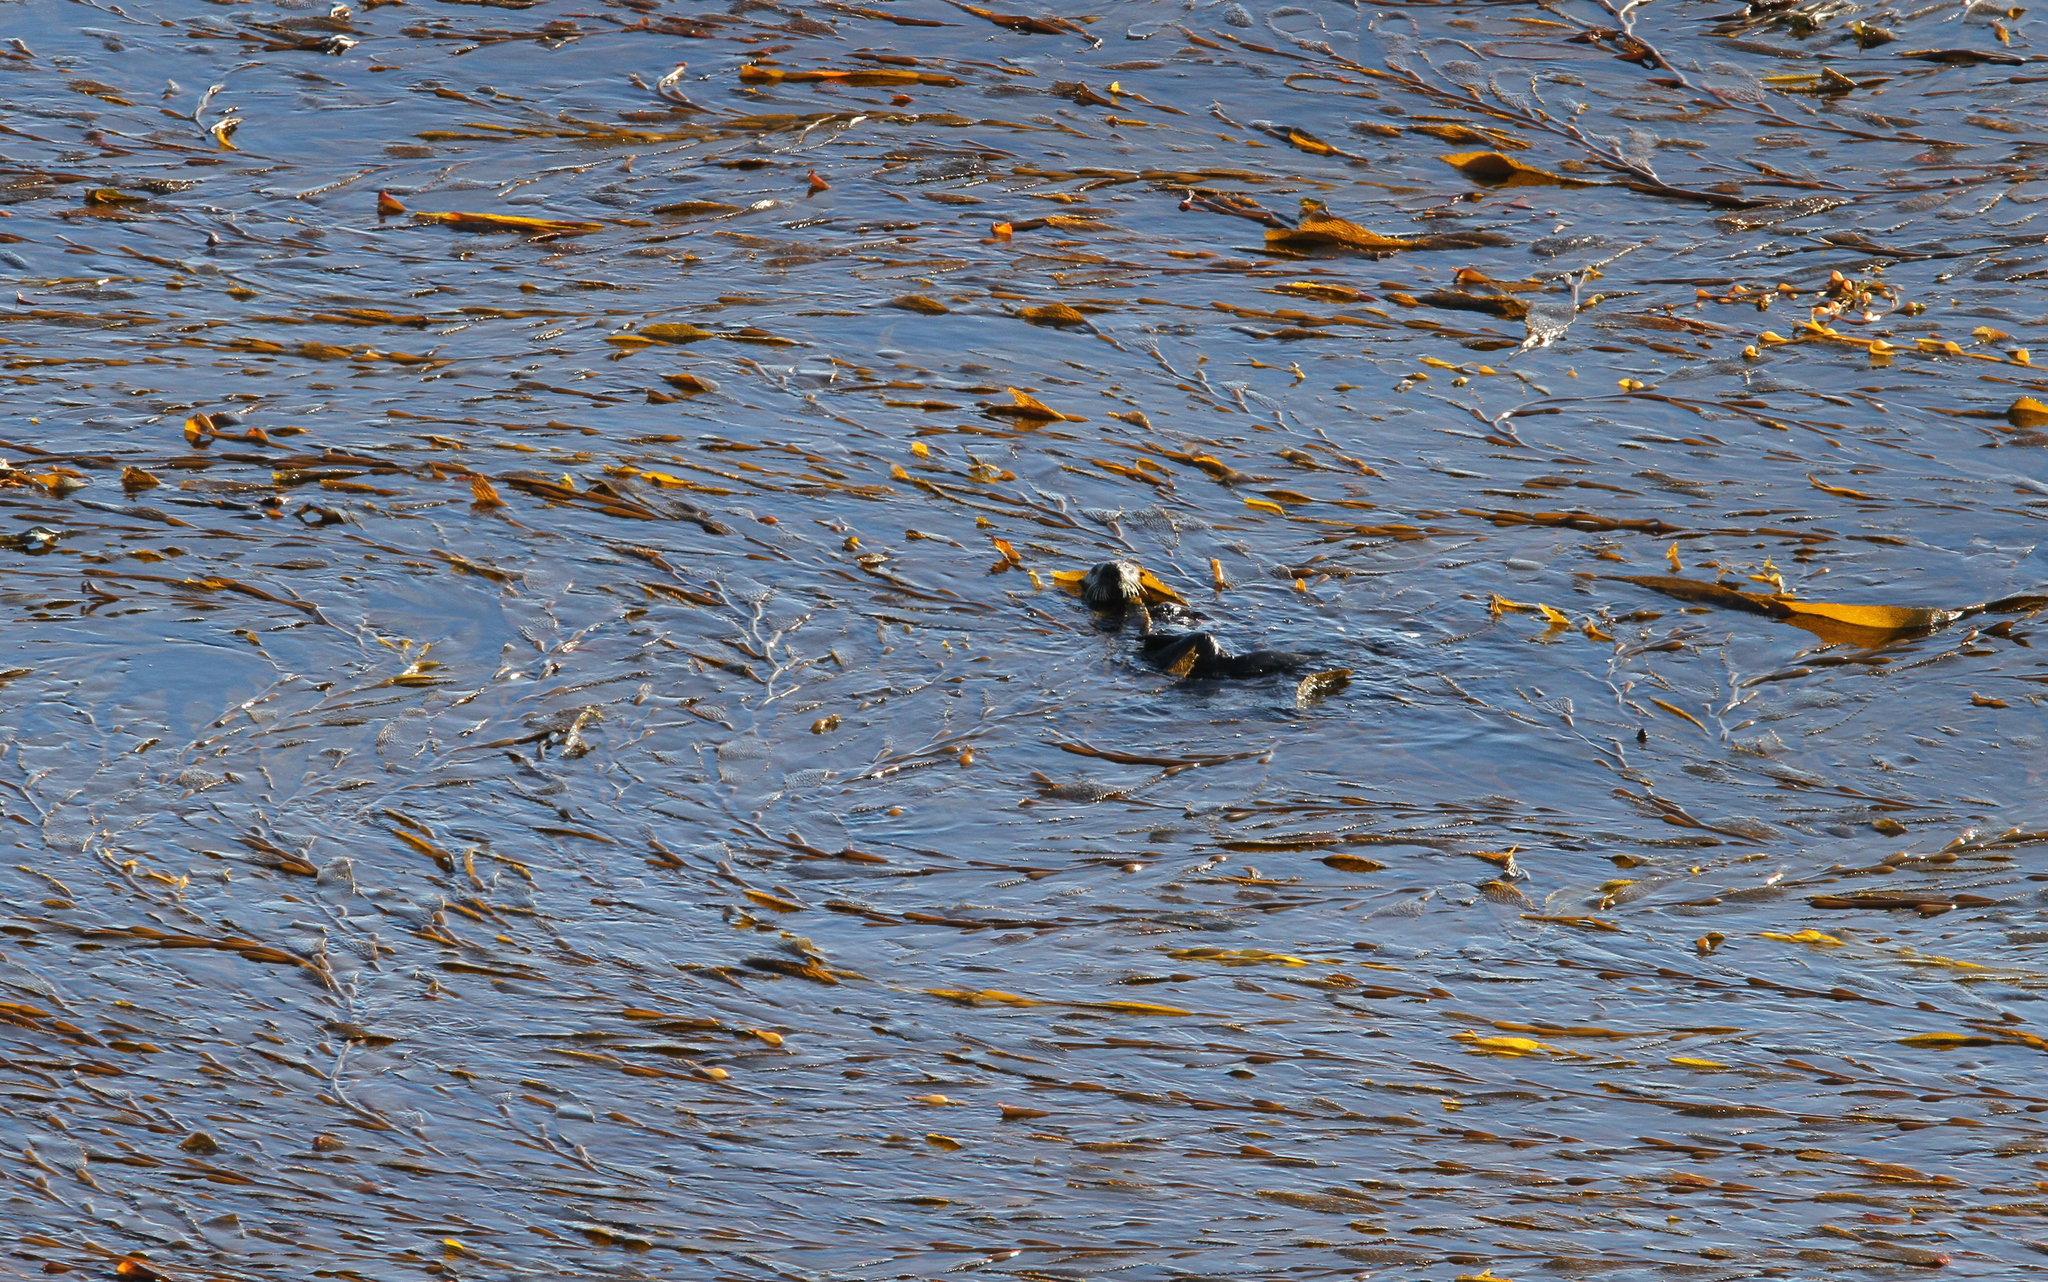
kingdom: Animalia
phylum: Chordata
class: Mammalia
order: Carnivora
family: Mustelidae
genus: Enhydra
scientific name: Enhydra lutris
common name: Sea otter
